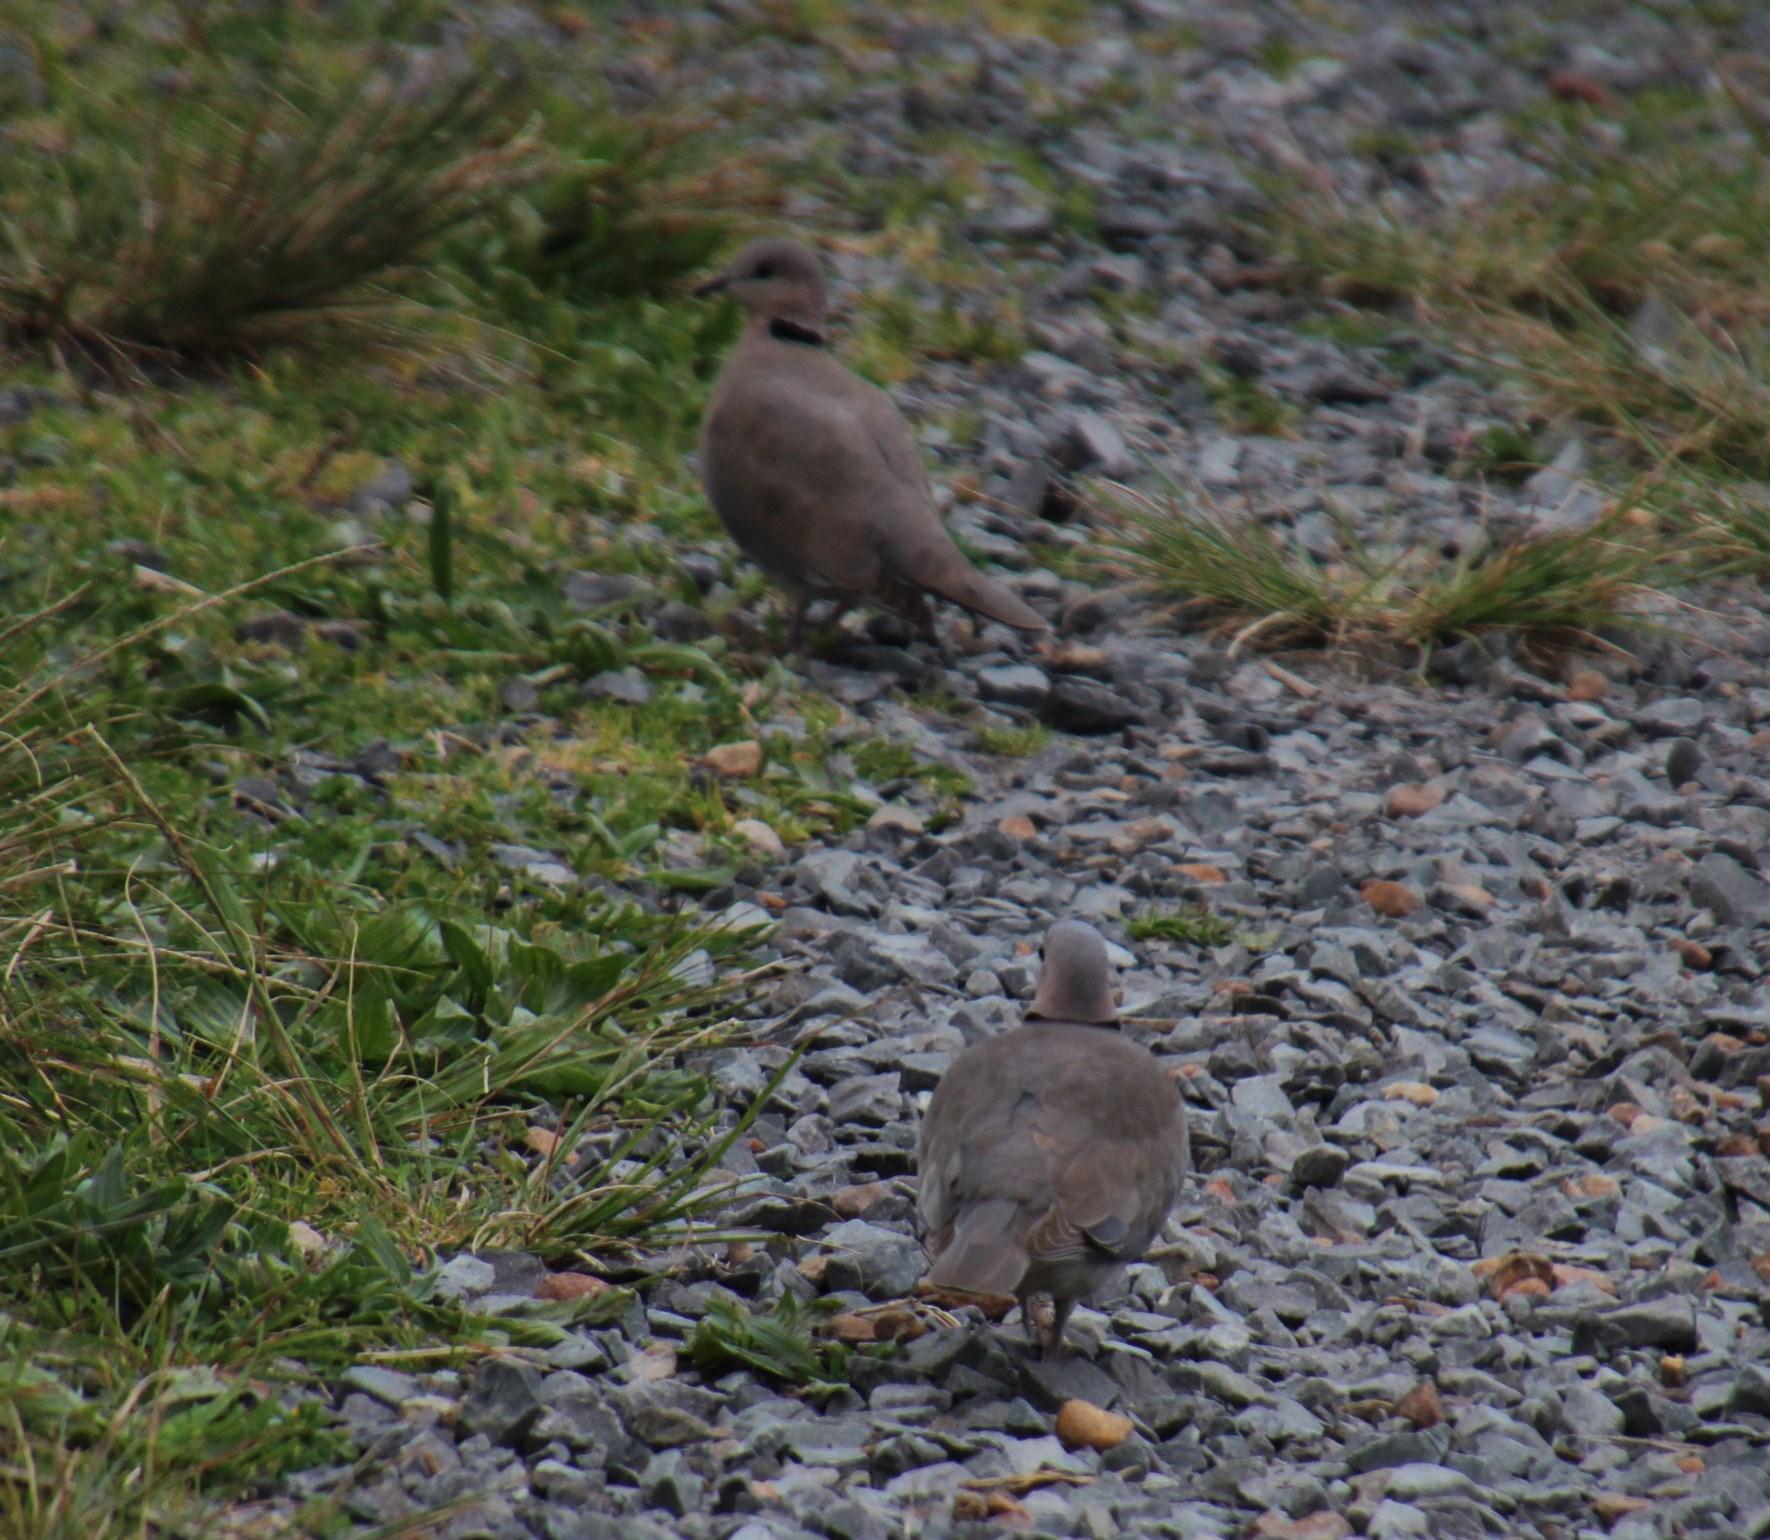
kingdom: Animalia
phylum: Chordata
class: Aves
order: Columbiformes
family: Columbidae
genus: Streptopelia
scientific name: Streptopelia capicola
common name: Ring-necked dove
